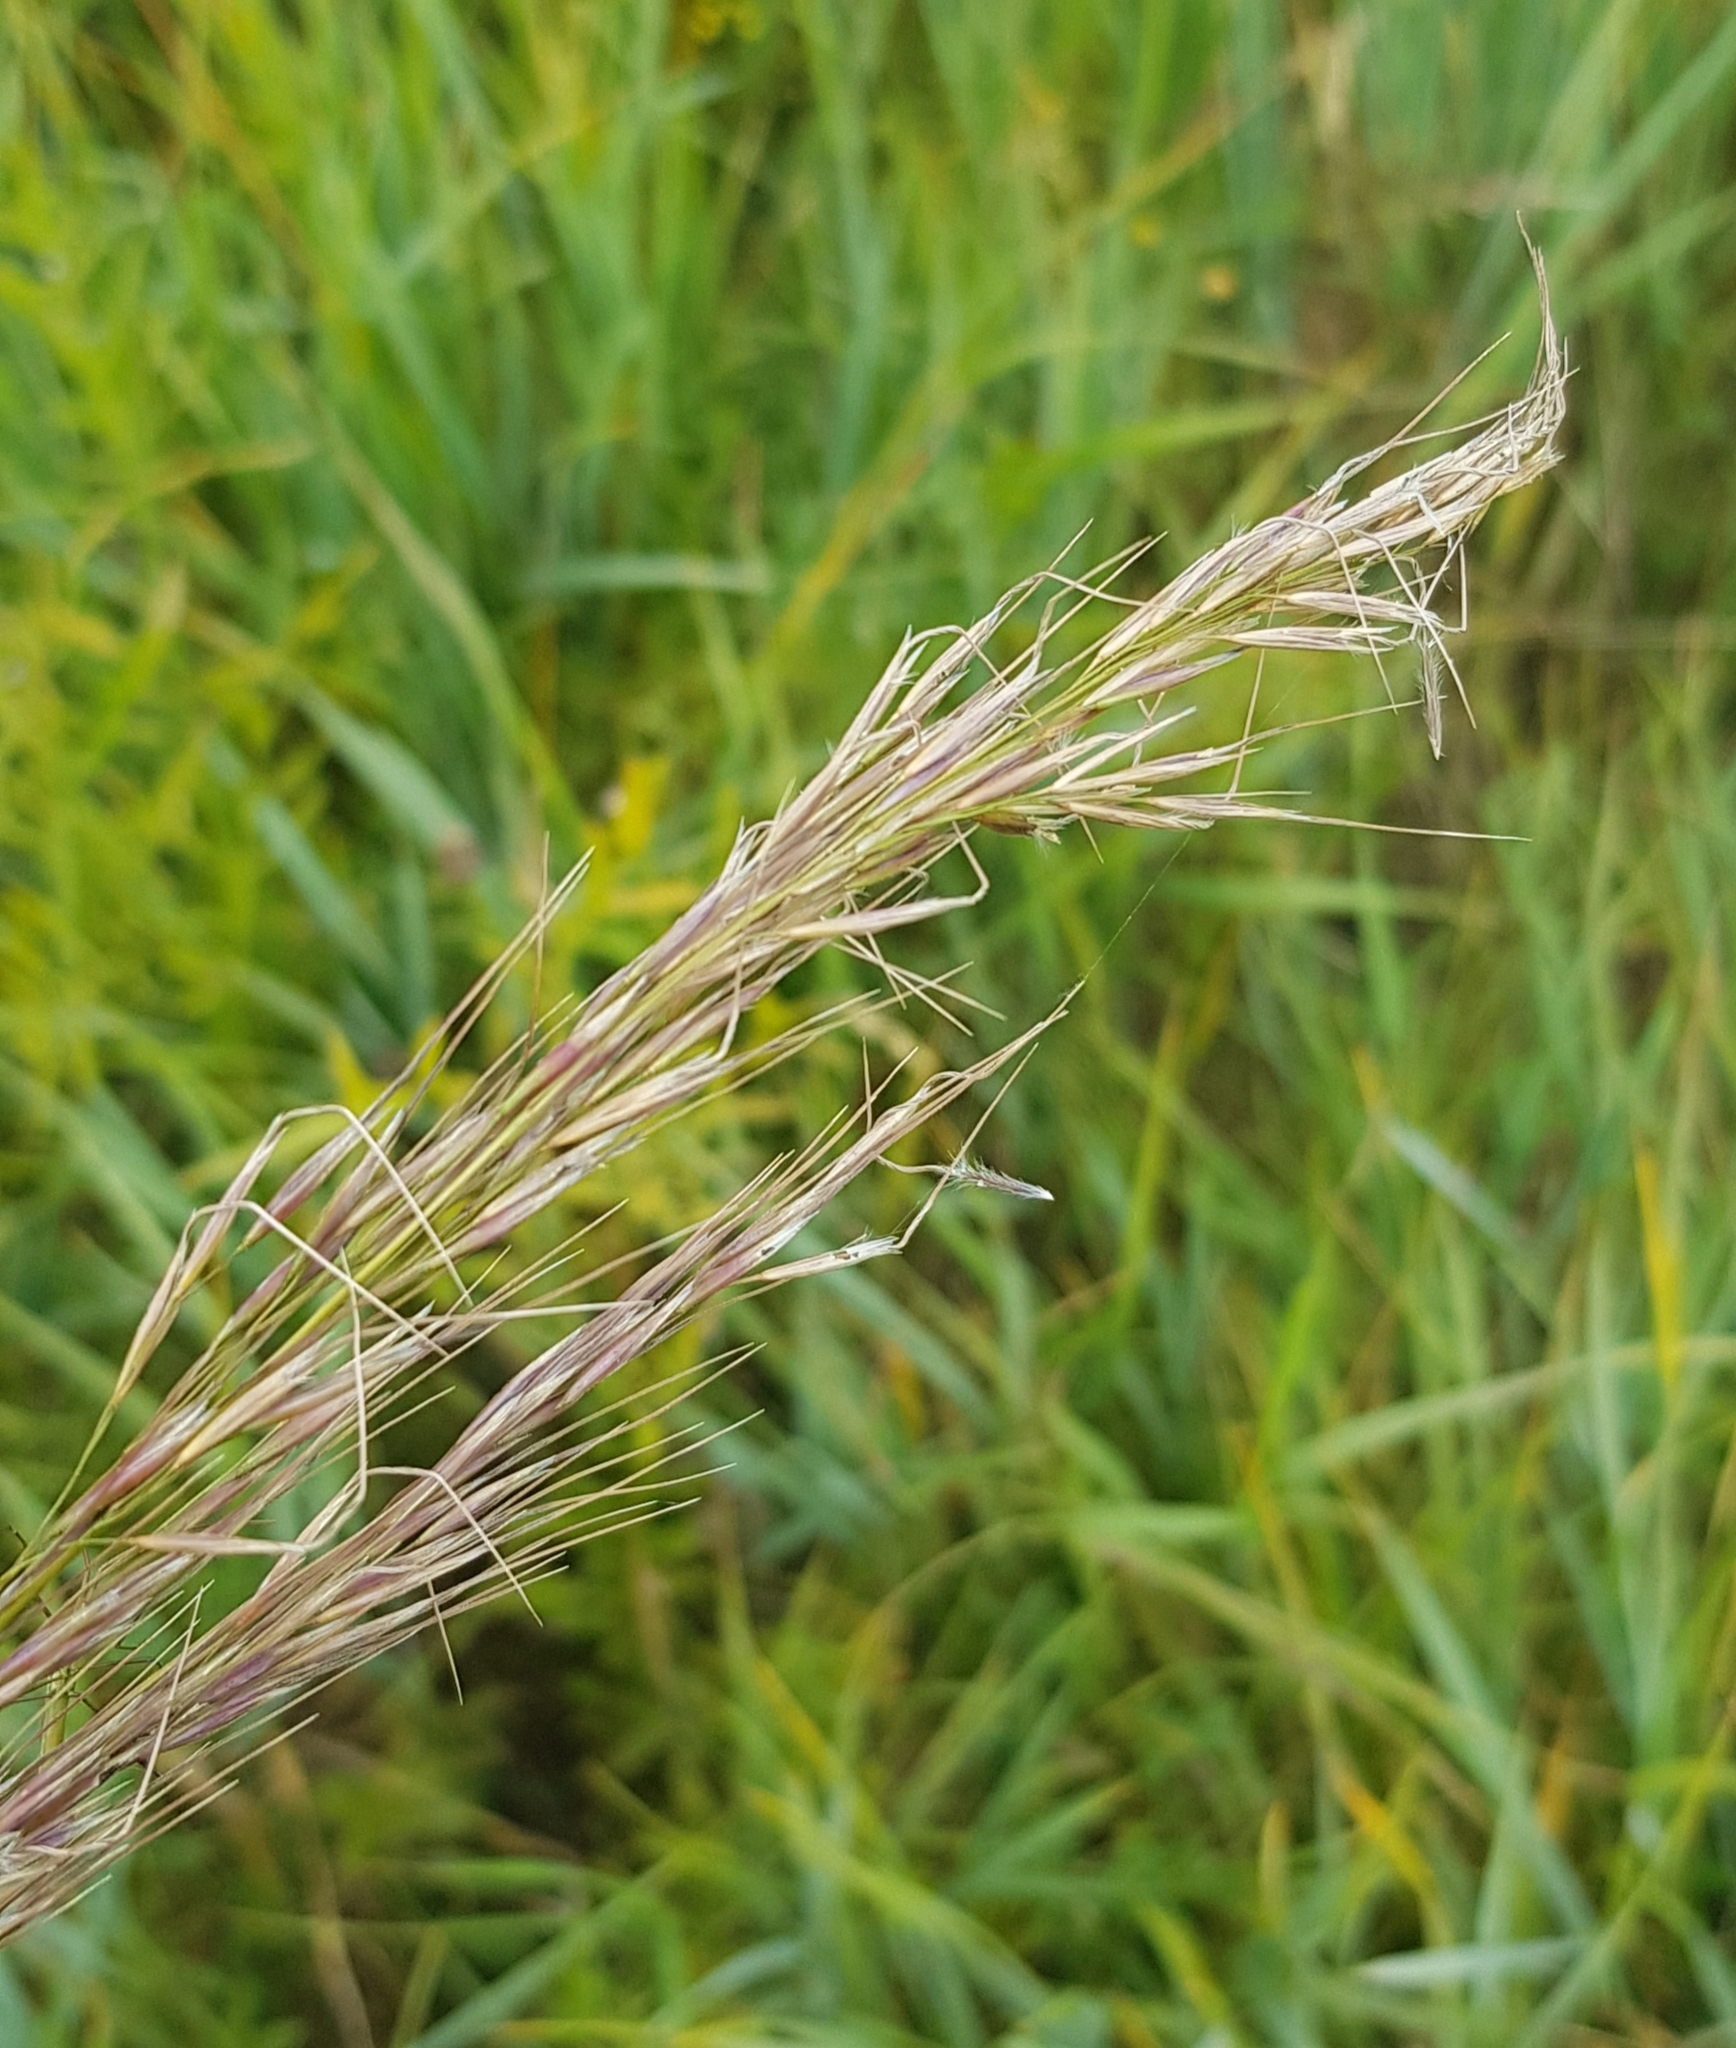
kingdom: Plantae
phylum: Tracheophyta
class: Liliopsida
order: Poales
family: Poaceae
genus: Achnatherum
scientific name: Achnatherum sibiricum
